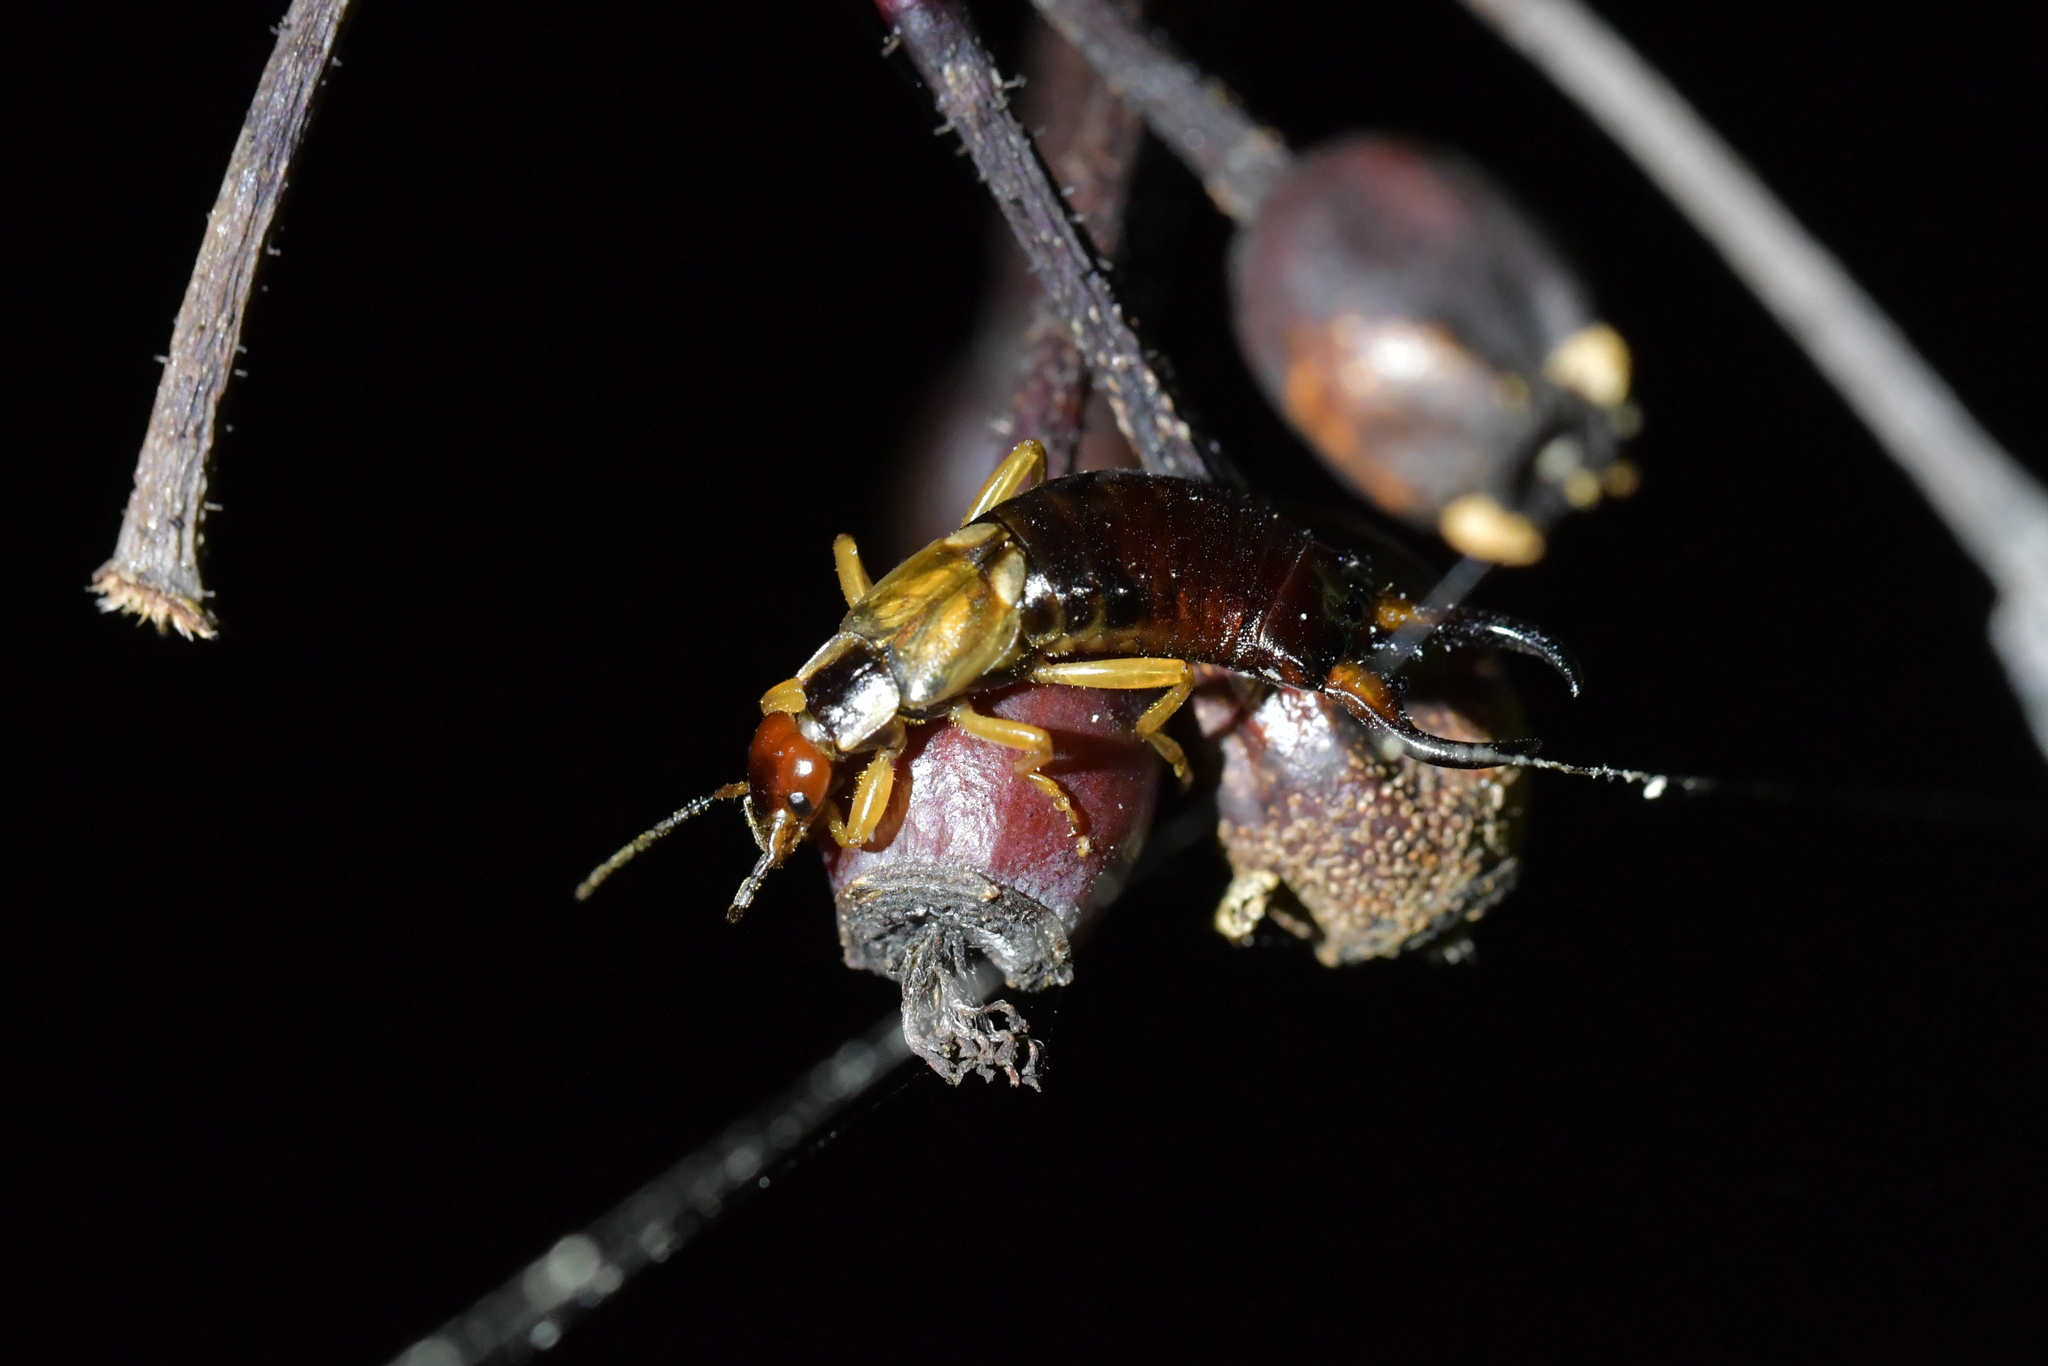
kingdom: Animalia
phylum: Arthropoda
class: Insecta
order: Dermaptera
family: Forficulidae
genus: Forficula
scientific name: Forficula
